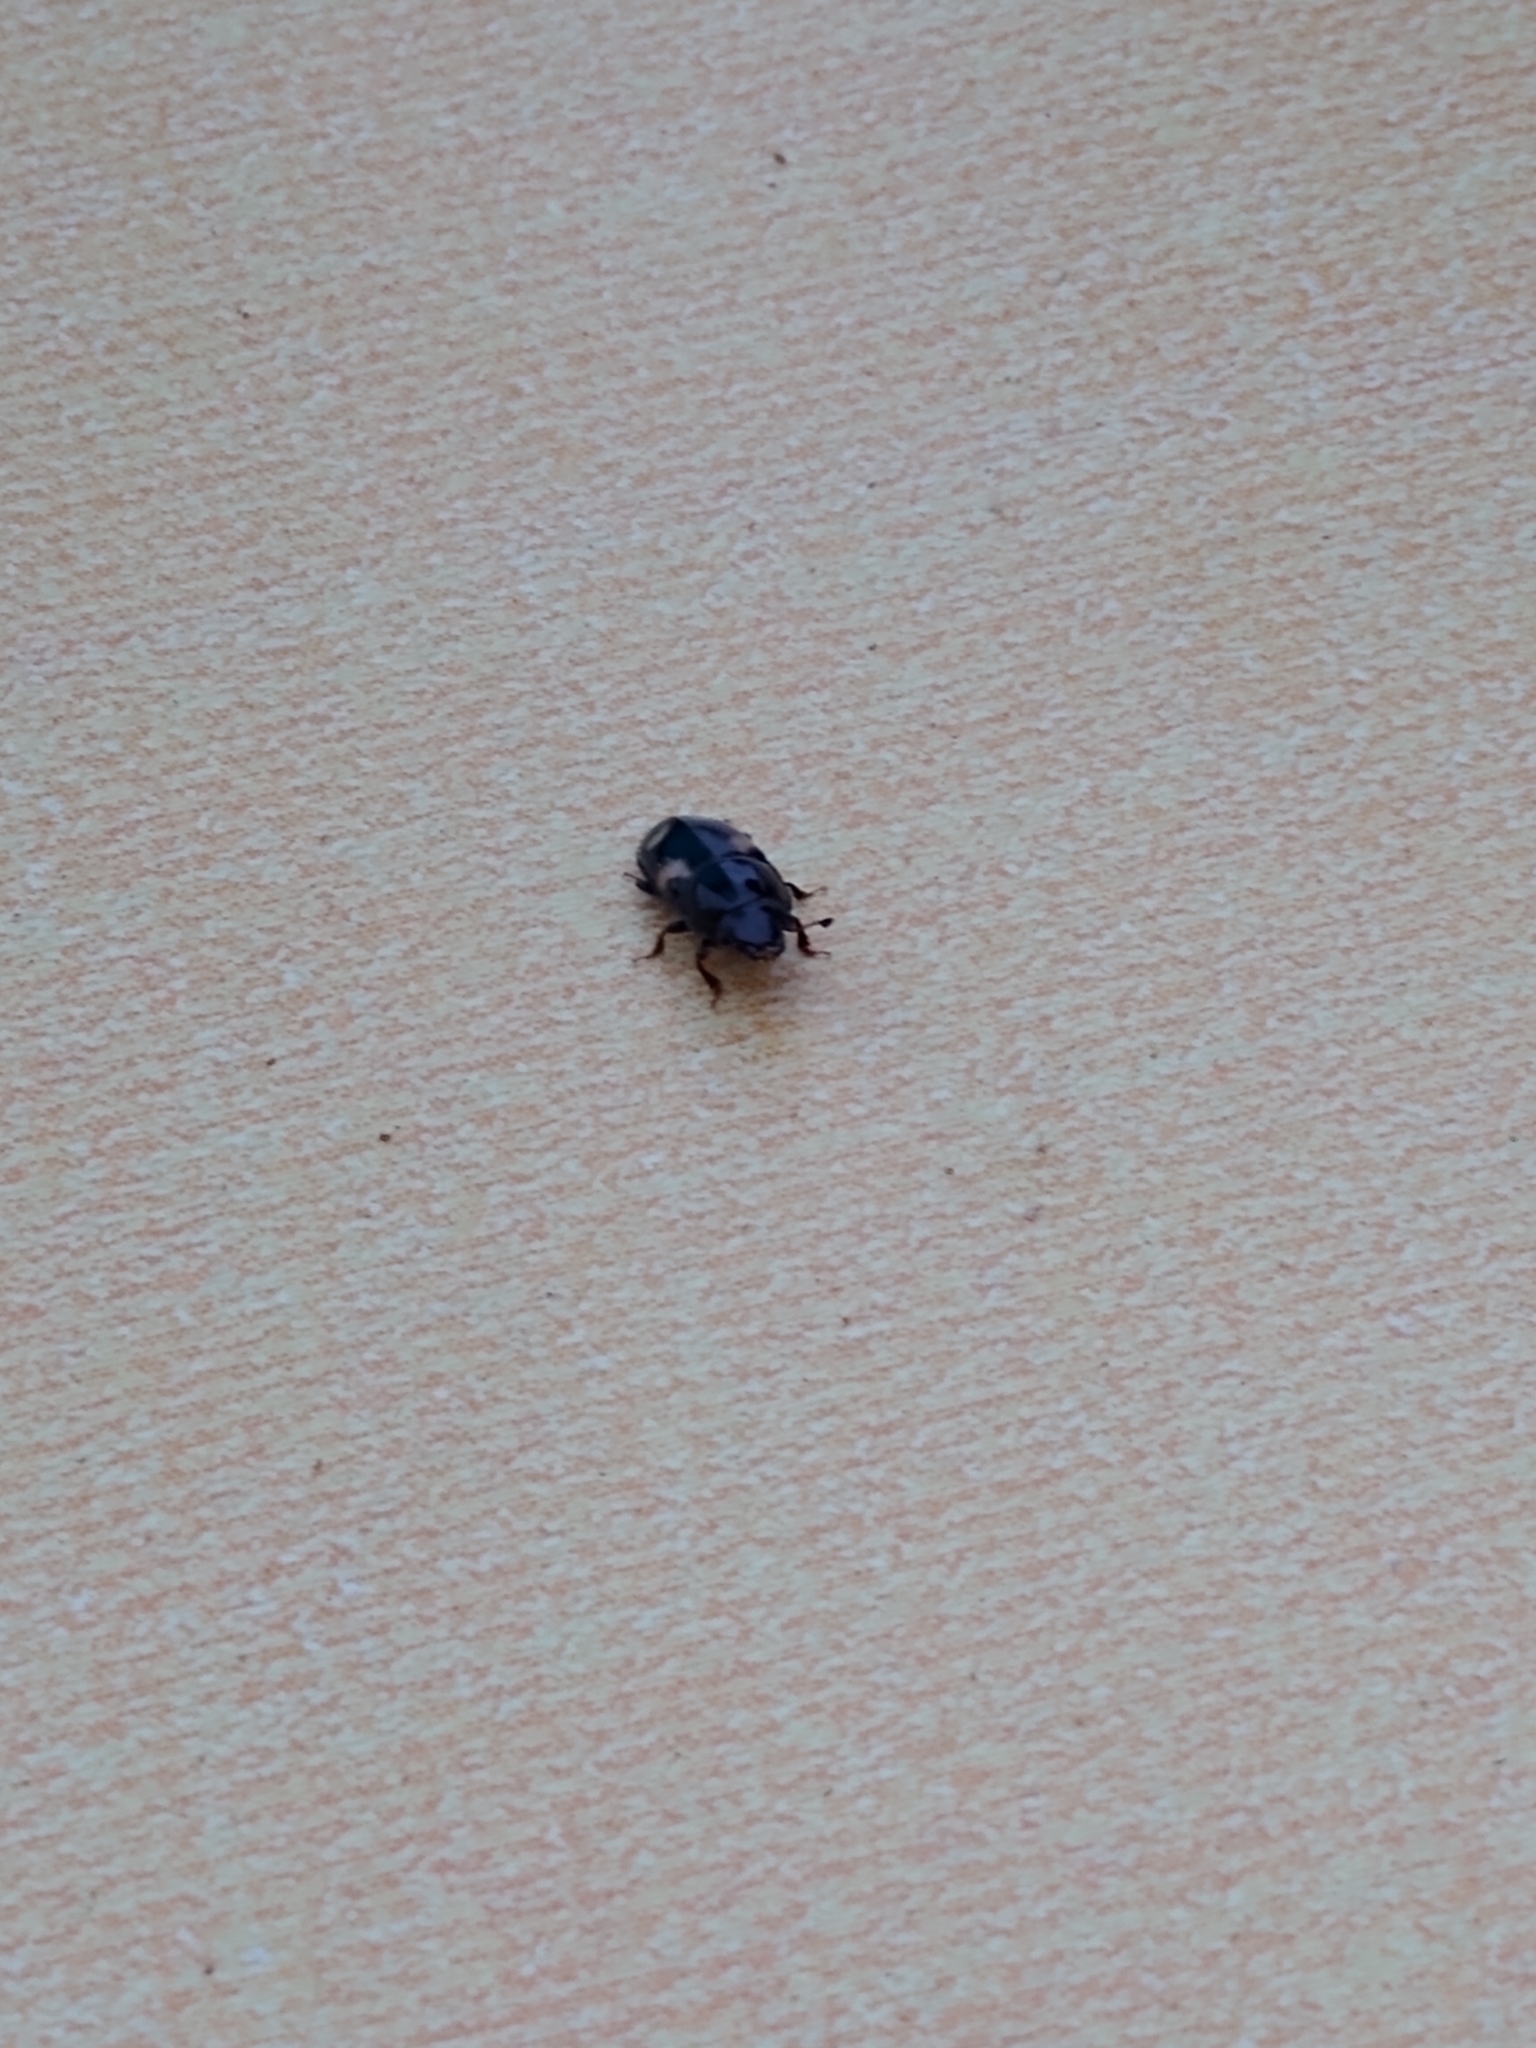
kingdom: Animalia
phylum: Arthropoda
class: Insecta
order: Coleoptera
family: Nitidulidae
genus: Glischrochilus
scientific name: Glischrochilus quadrisignatus
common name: Picnic beetle
